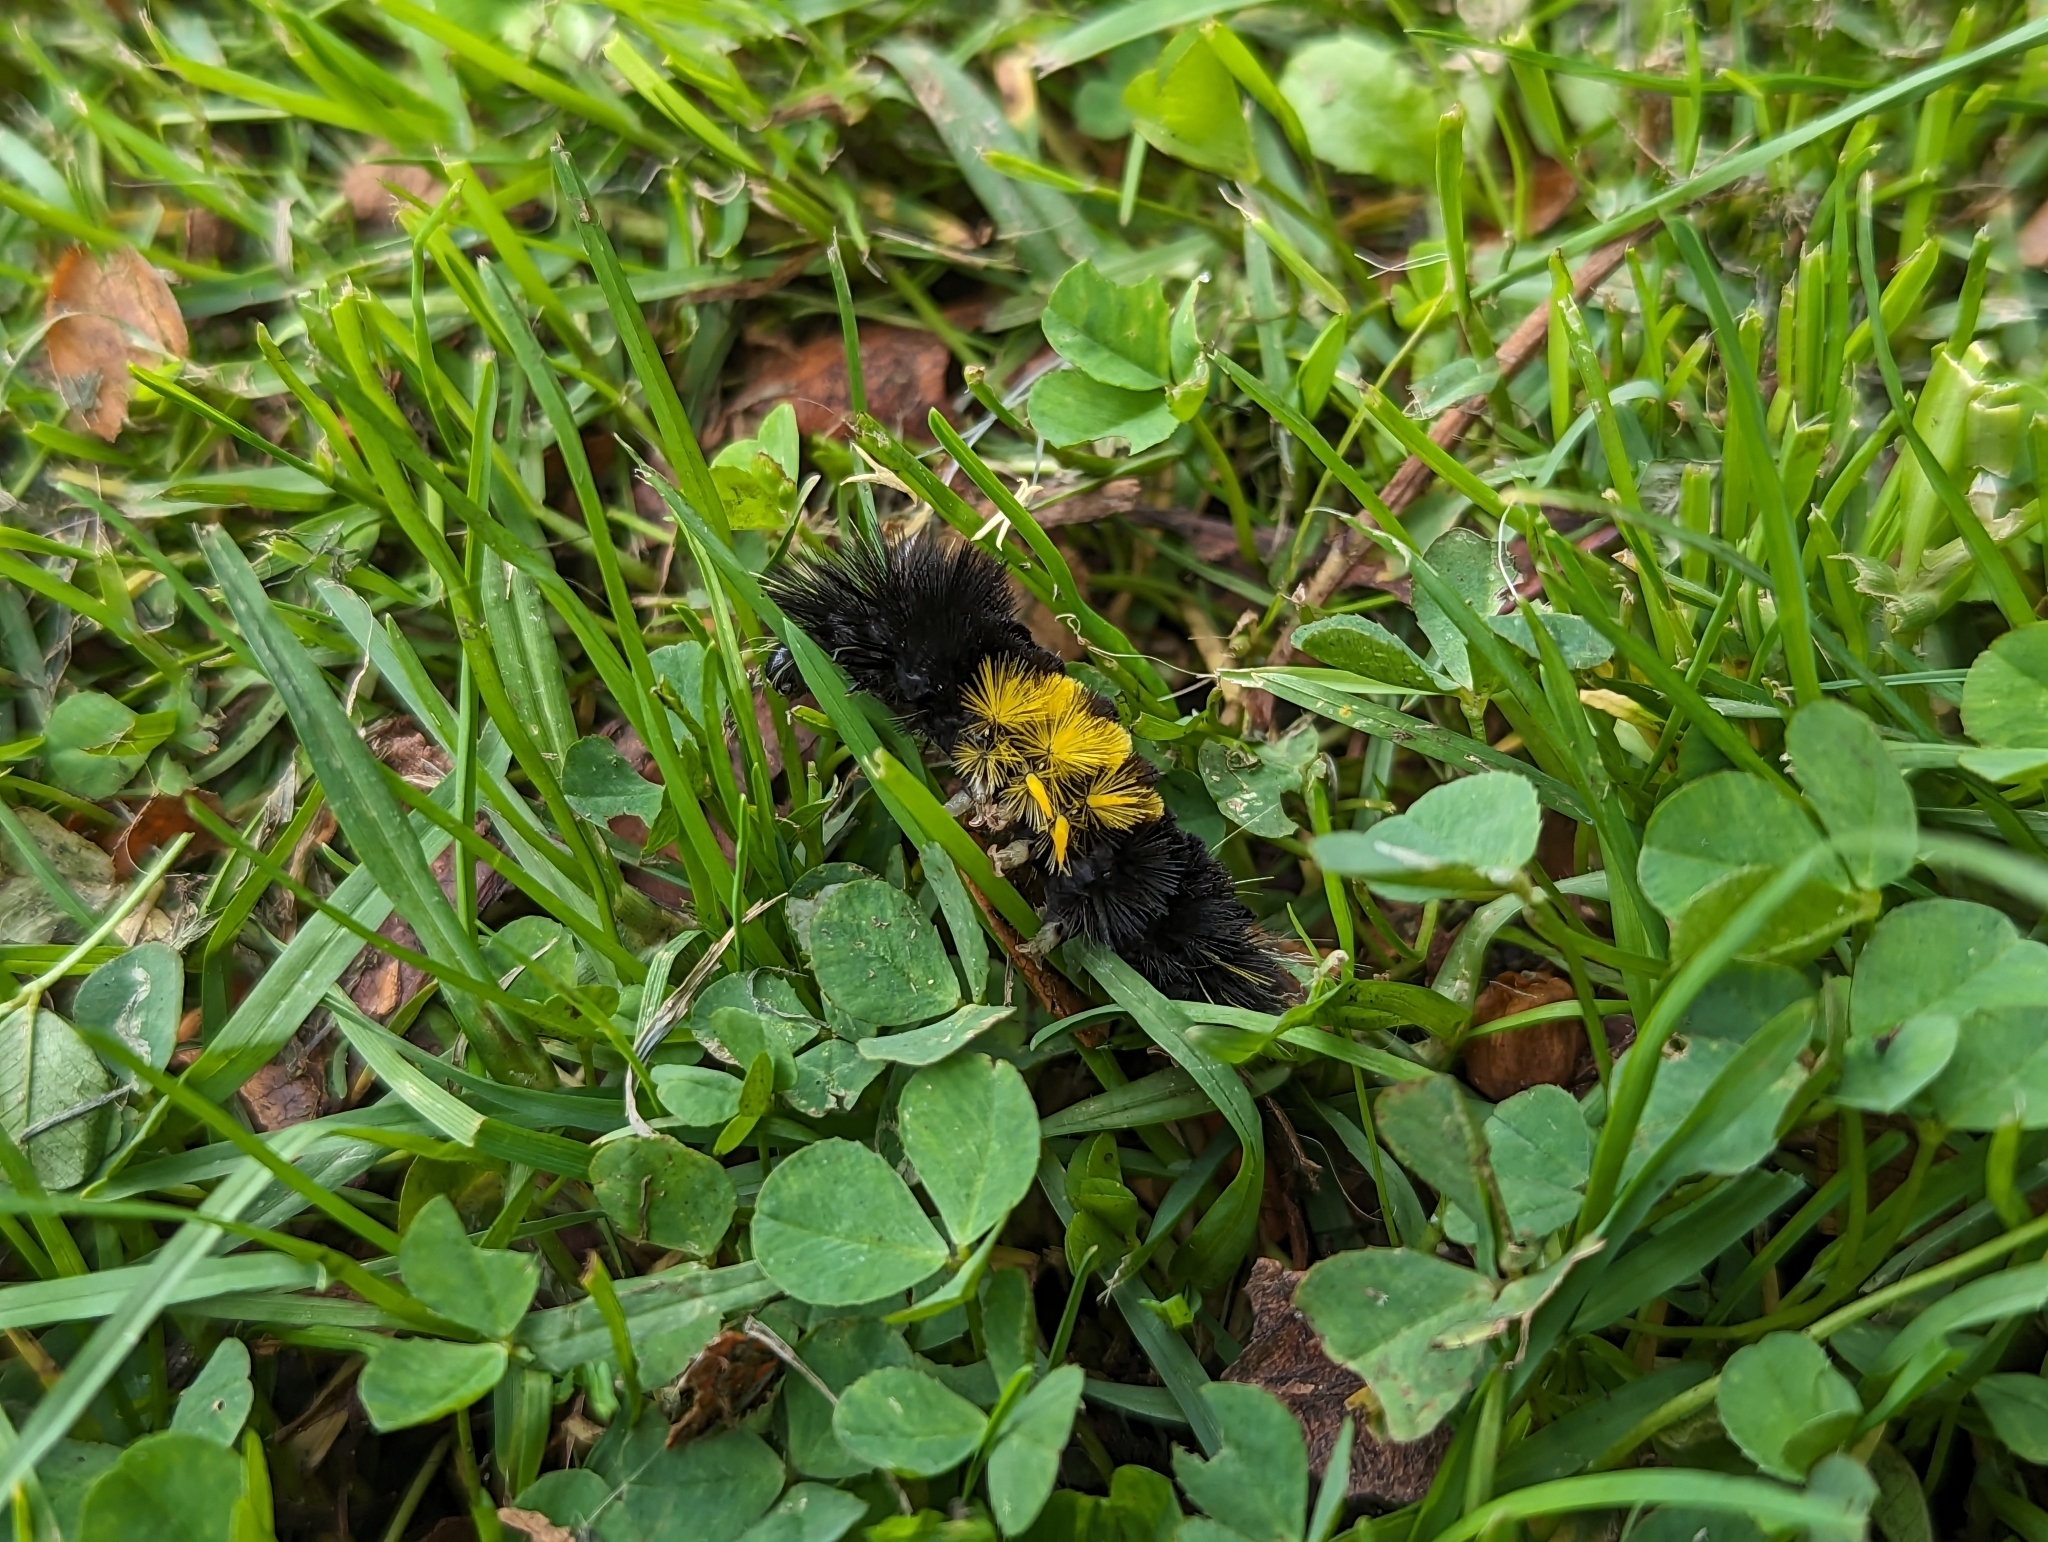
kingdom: Animalia
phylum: Arthropoda
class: Insecta
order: Lepidoptera
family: Erebidae
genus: Lophocampa
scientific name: Lophocampa maculata
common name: Spotted tussock moth
